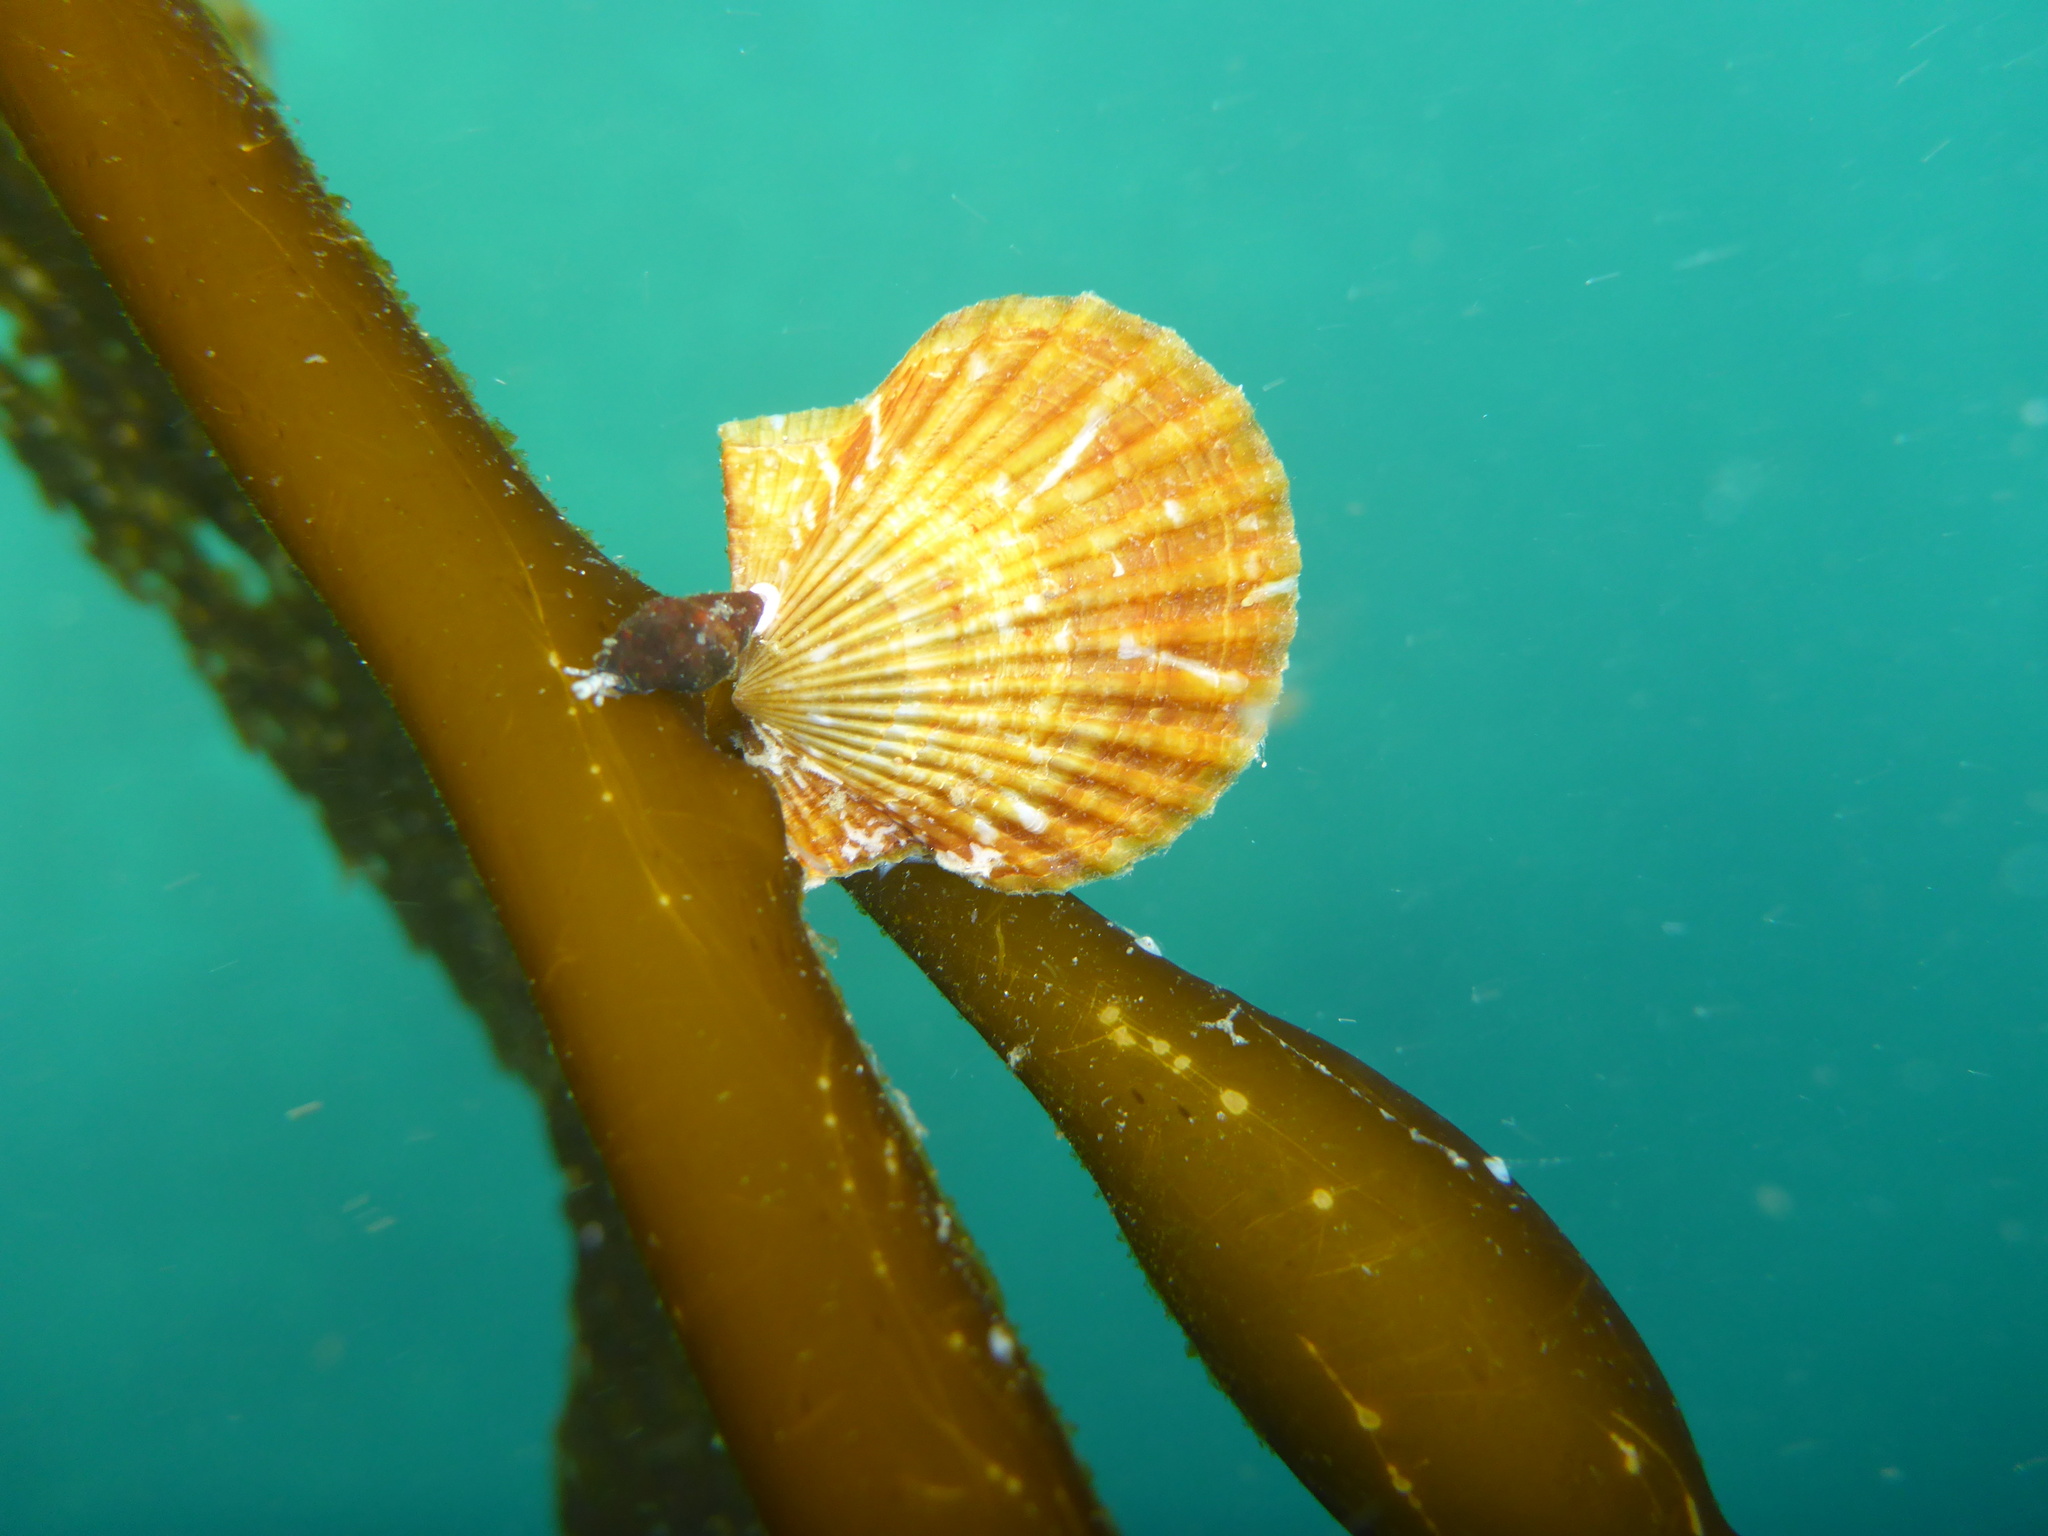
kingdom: Animalia
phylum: Mollusca
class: Bivalvia
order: Pectinida
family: Pectinidae
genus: Leptopecten
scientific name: Leptopecten latiauratus
